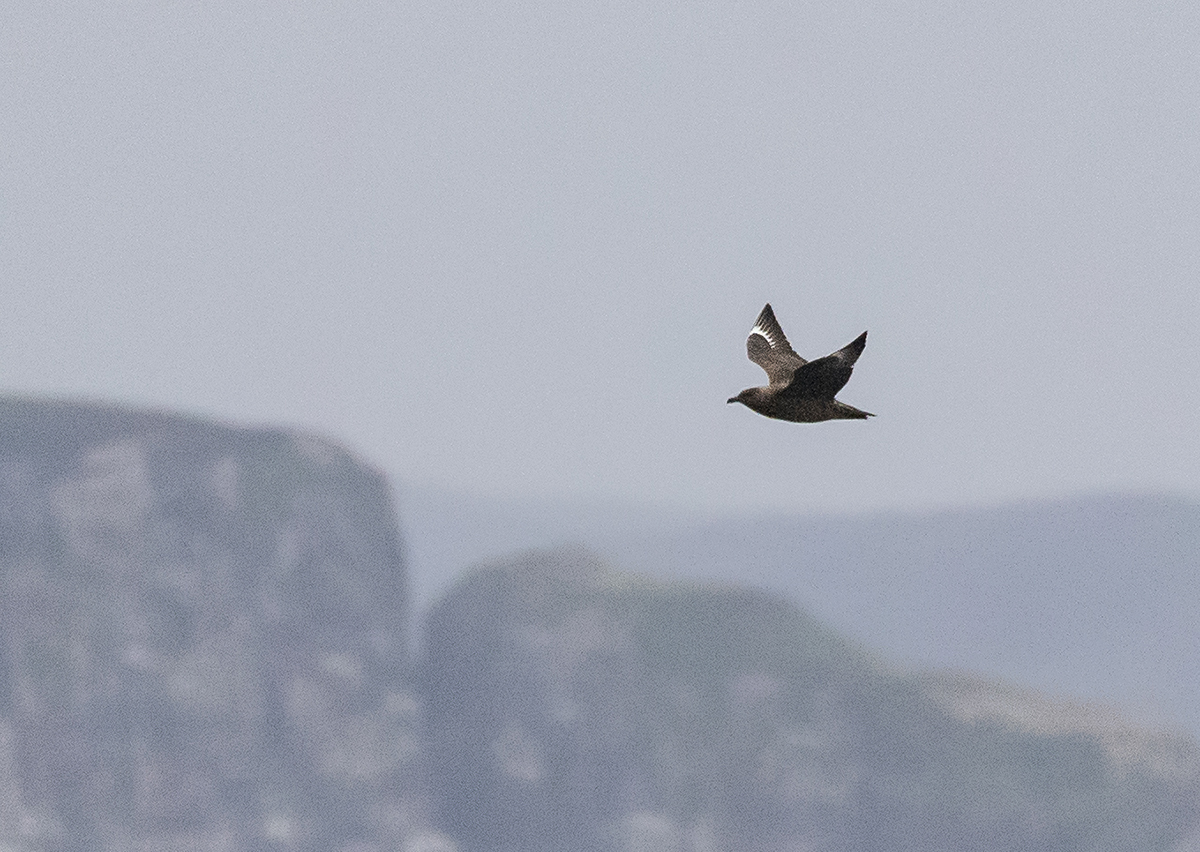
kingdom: Animalia
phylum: Chordata
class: Aves
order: Charadriiformes
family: Stercorariidae
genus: Stercorarius
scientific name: Stercorarius skua
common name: Great skua
